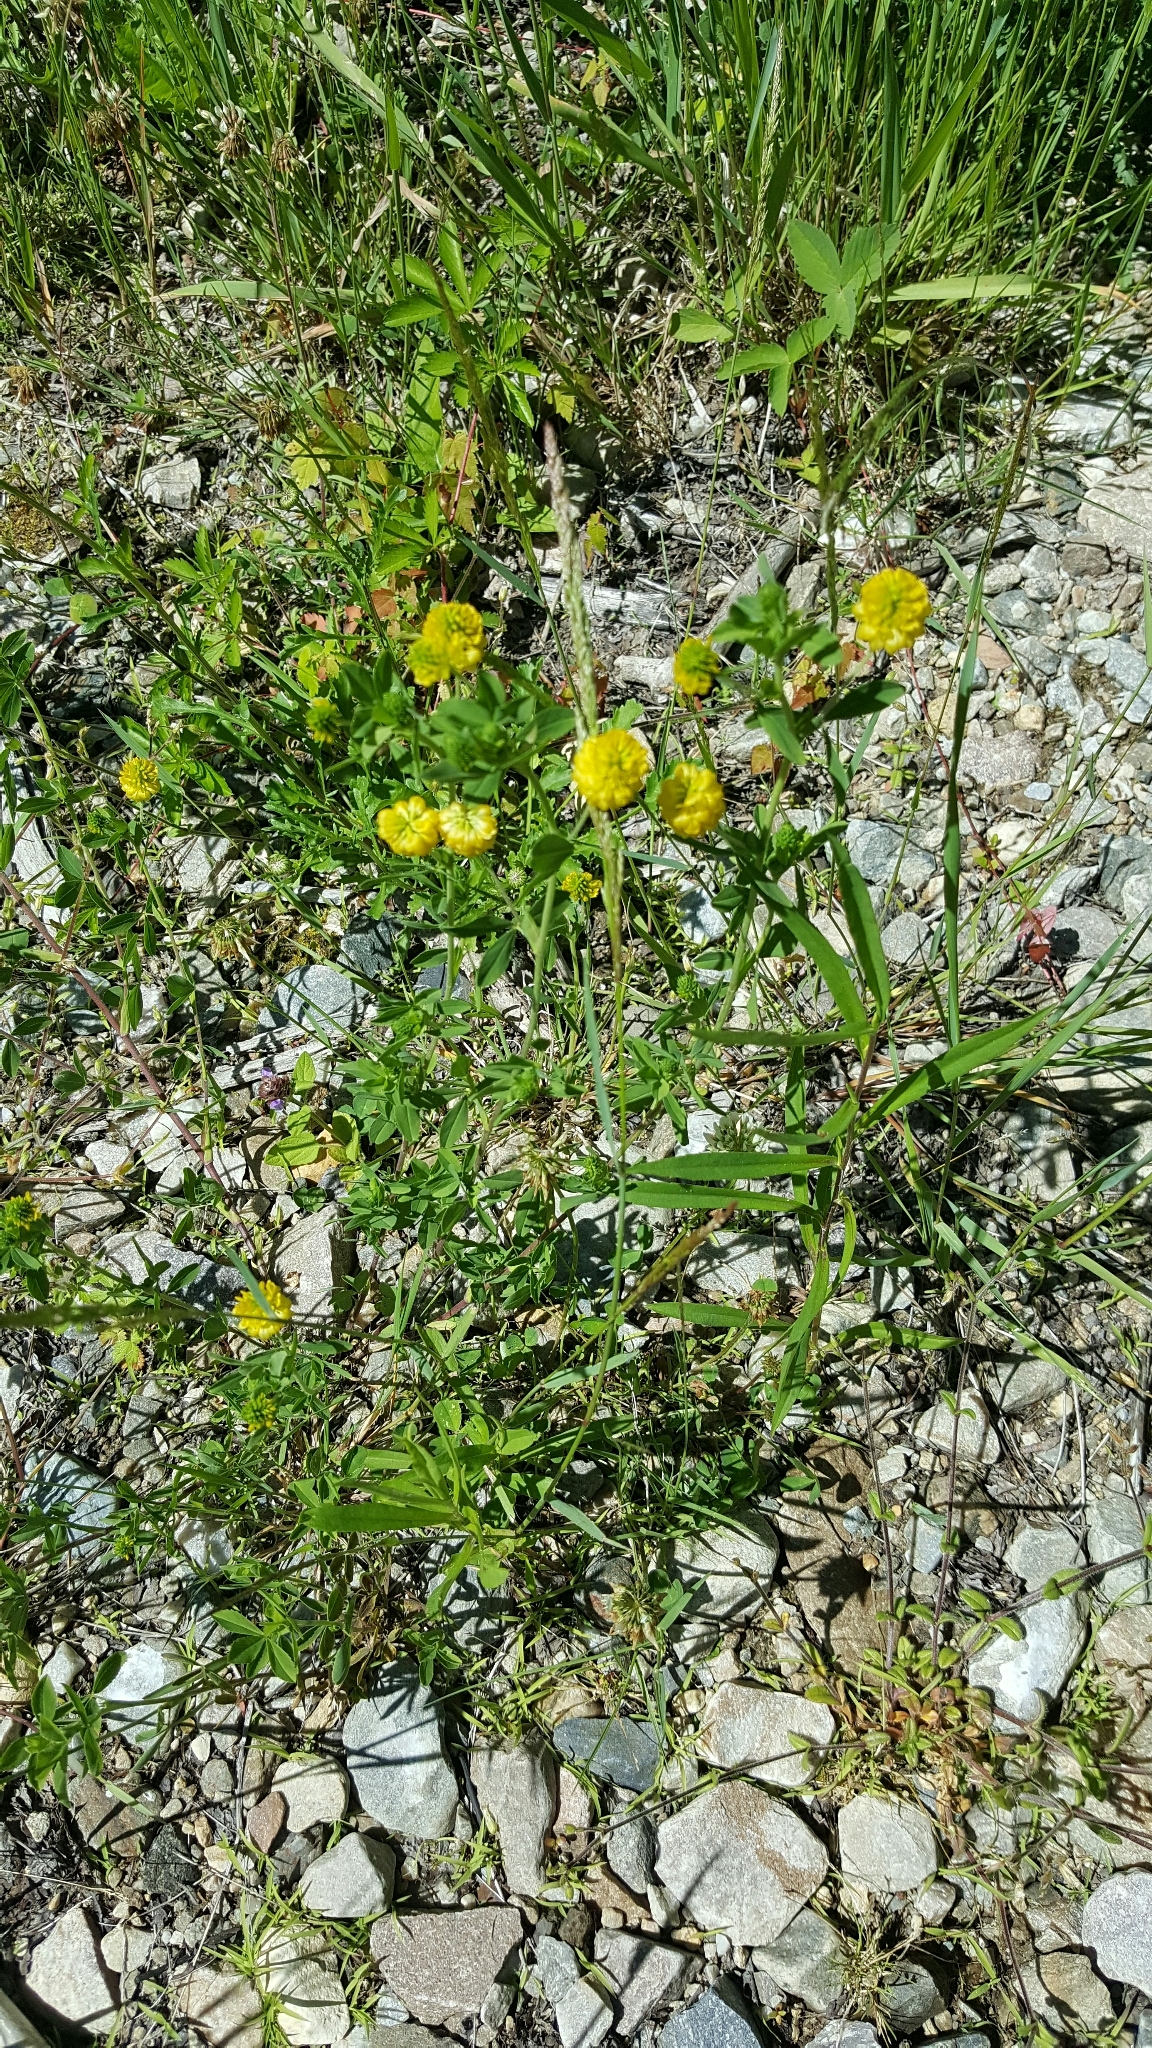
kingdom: Plantae
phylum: Tracheophyta
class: Magnoliopsida
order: Fabales
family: Fabaceae
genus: Trifolium
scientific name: Trifolium aureum
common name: Golden clover
